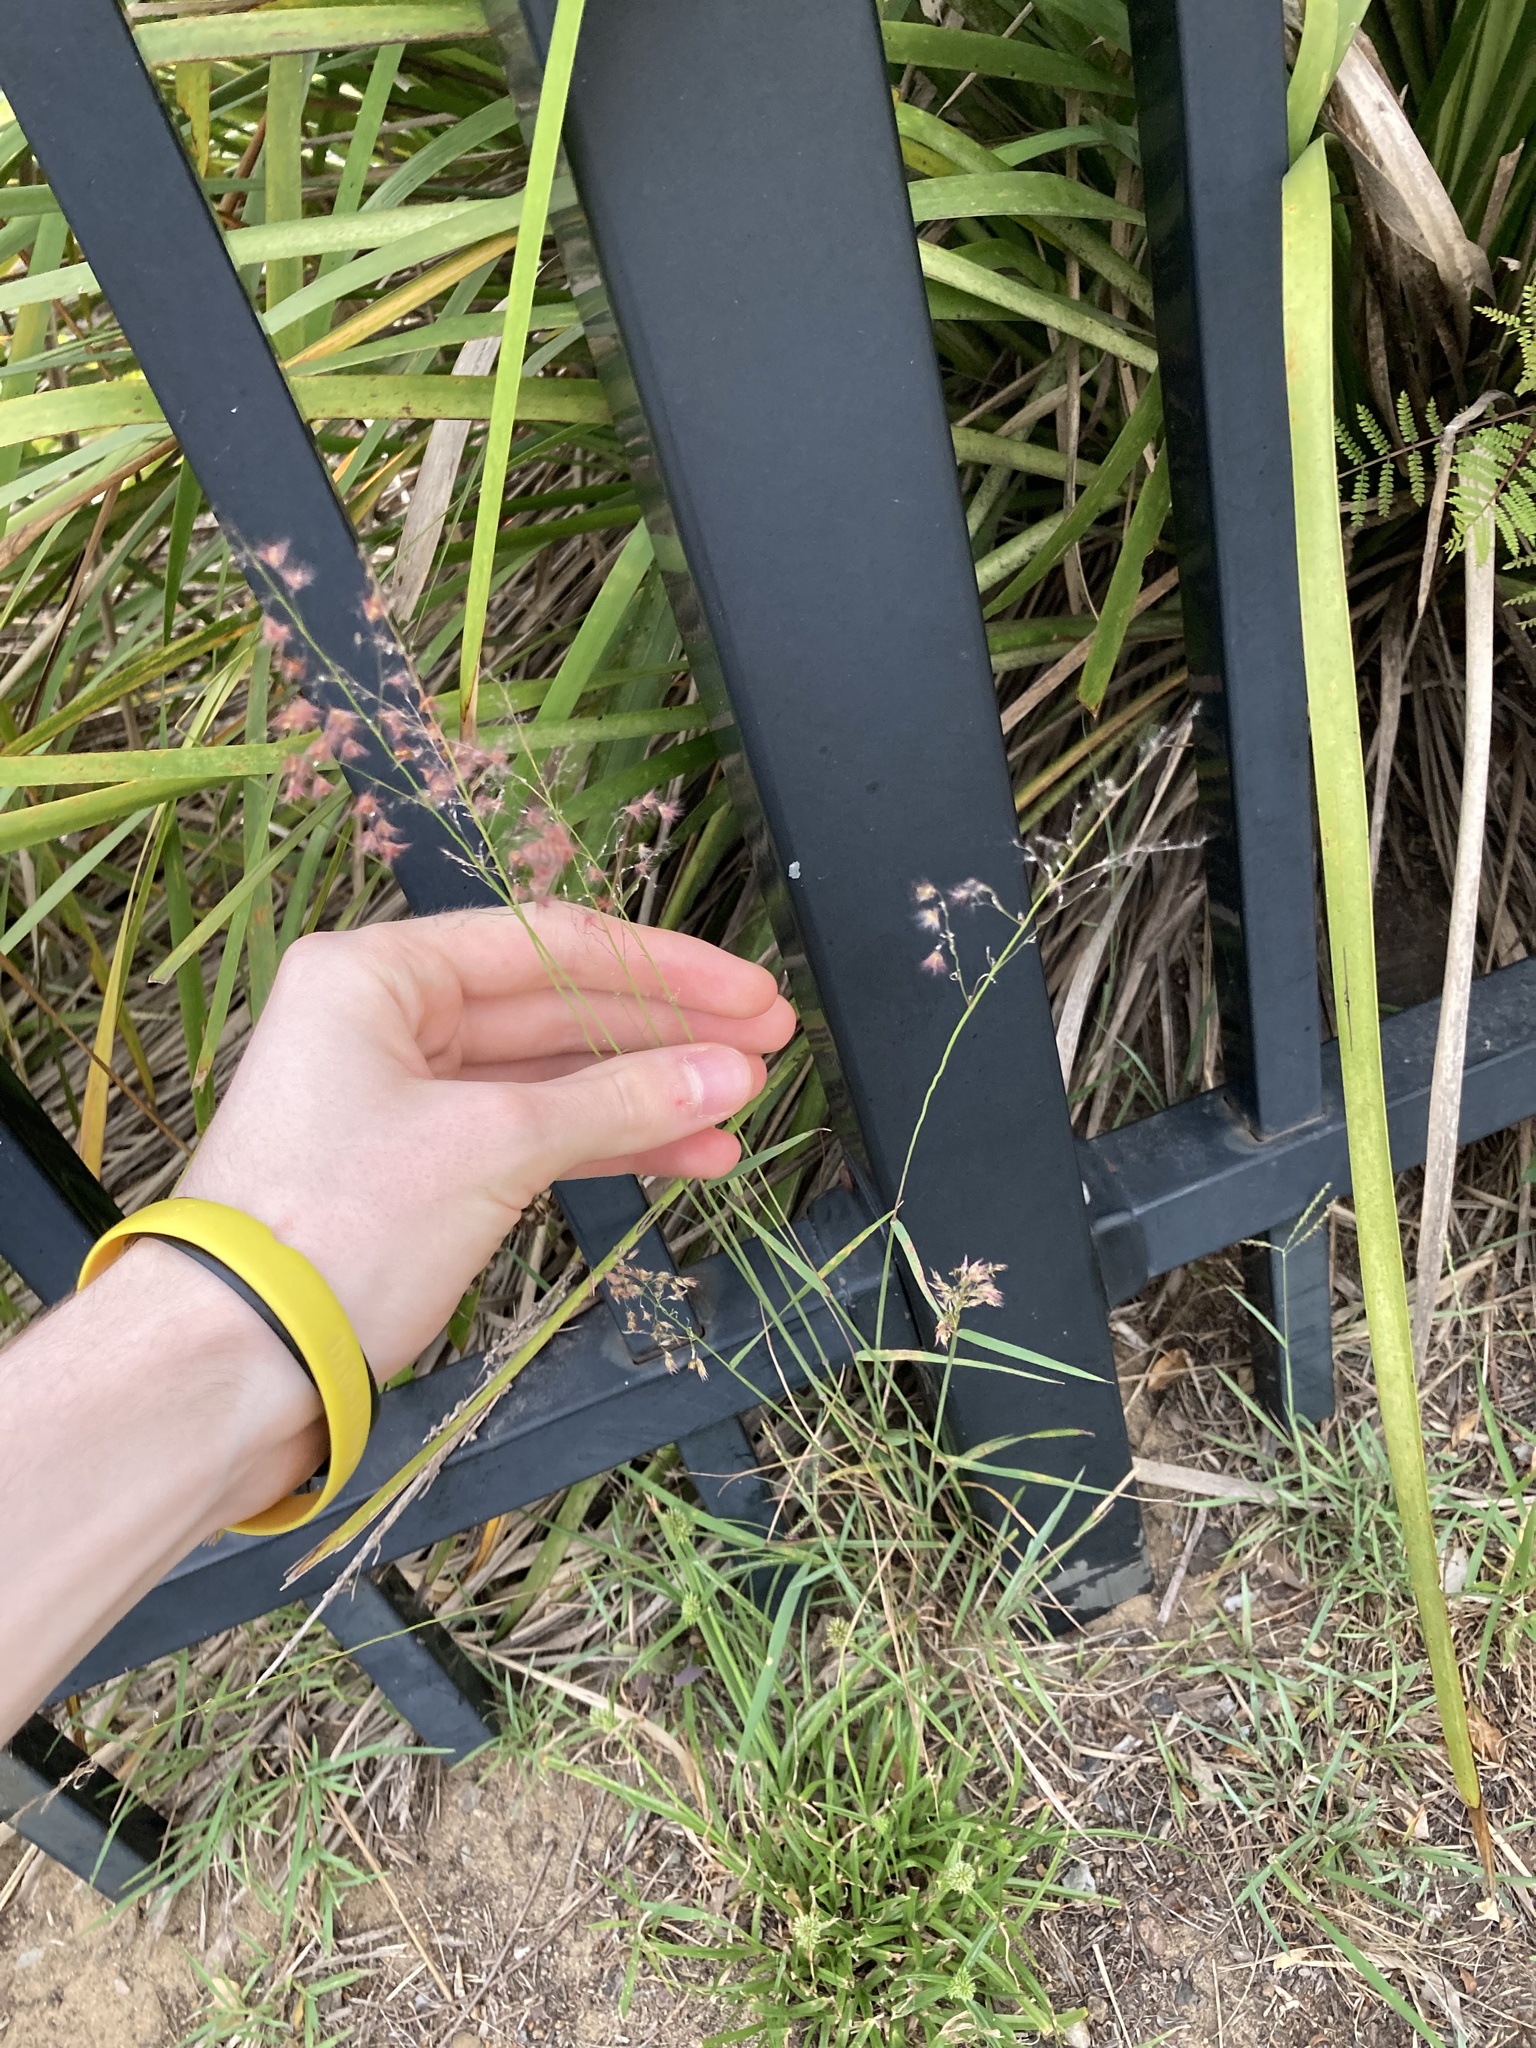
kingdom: Plantae
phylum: Tracheophyta
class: Liliopsida
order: Poales
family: Poaceae
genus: Melinis
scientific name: Melinis repens
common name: Rose natal grass
